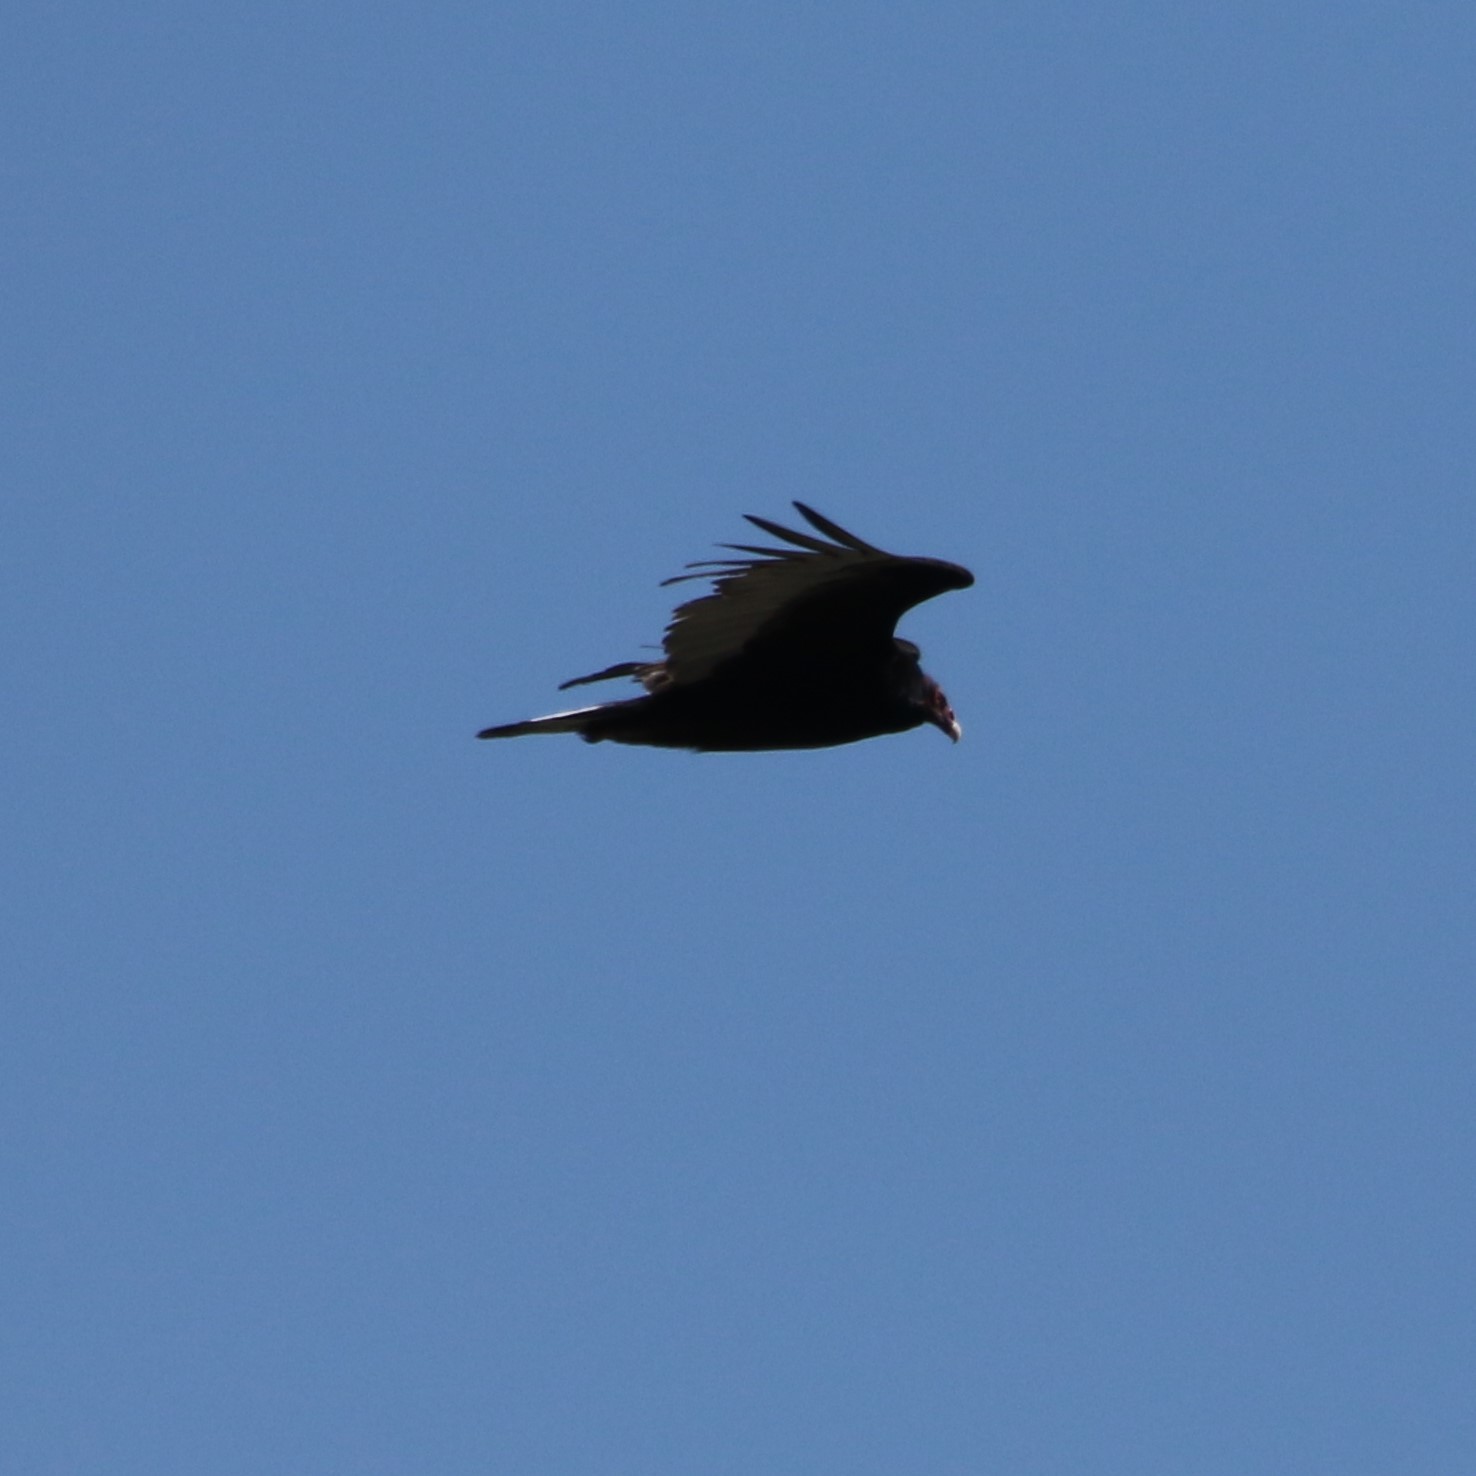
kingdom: Animalia
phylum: Chordata
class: Aves
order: Accipitriformes
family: Cathartidae
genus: Cathartes
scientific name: Cathartes aura
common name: Turkey vulture
